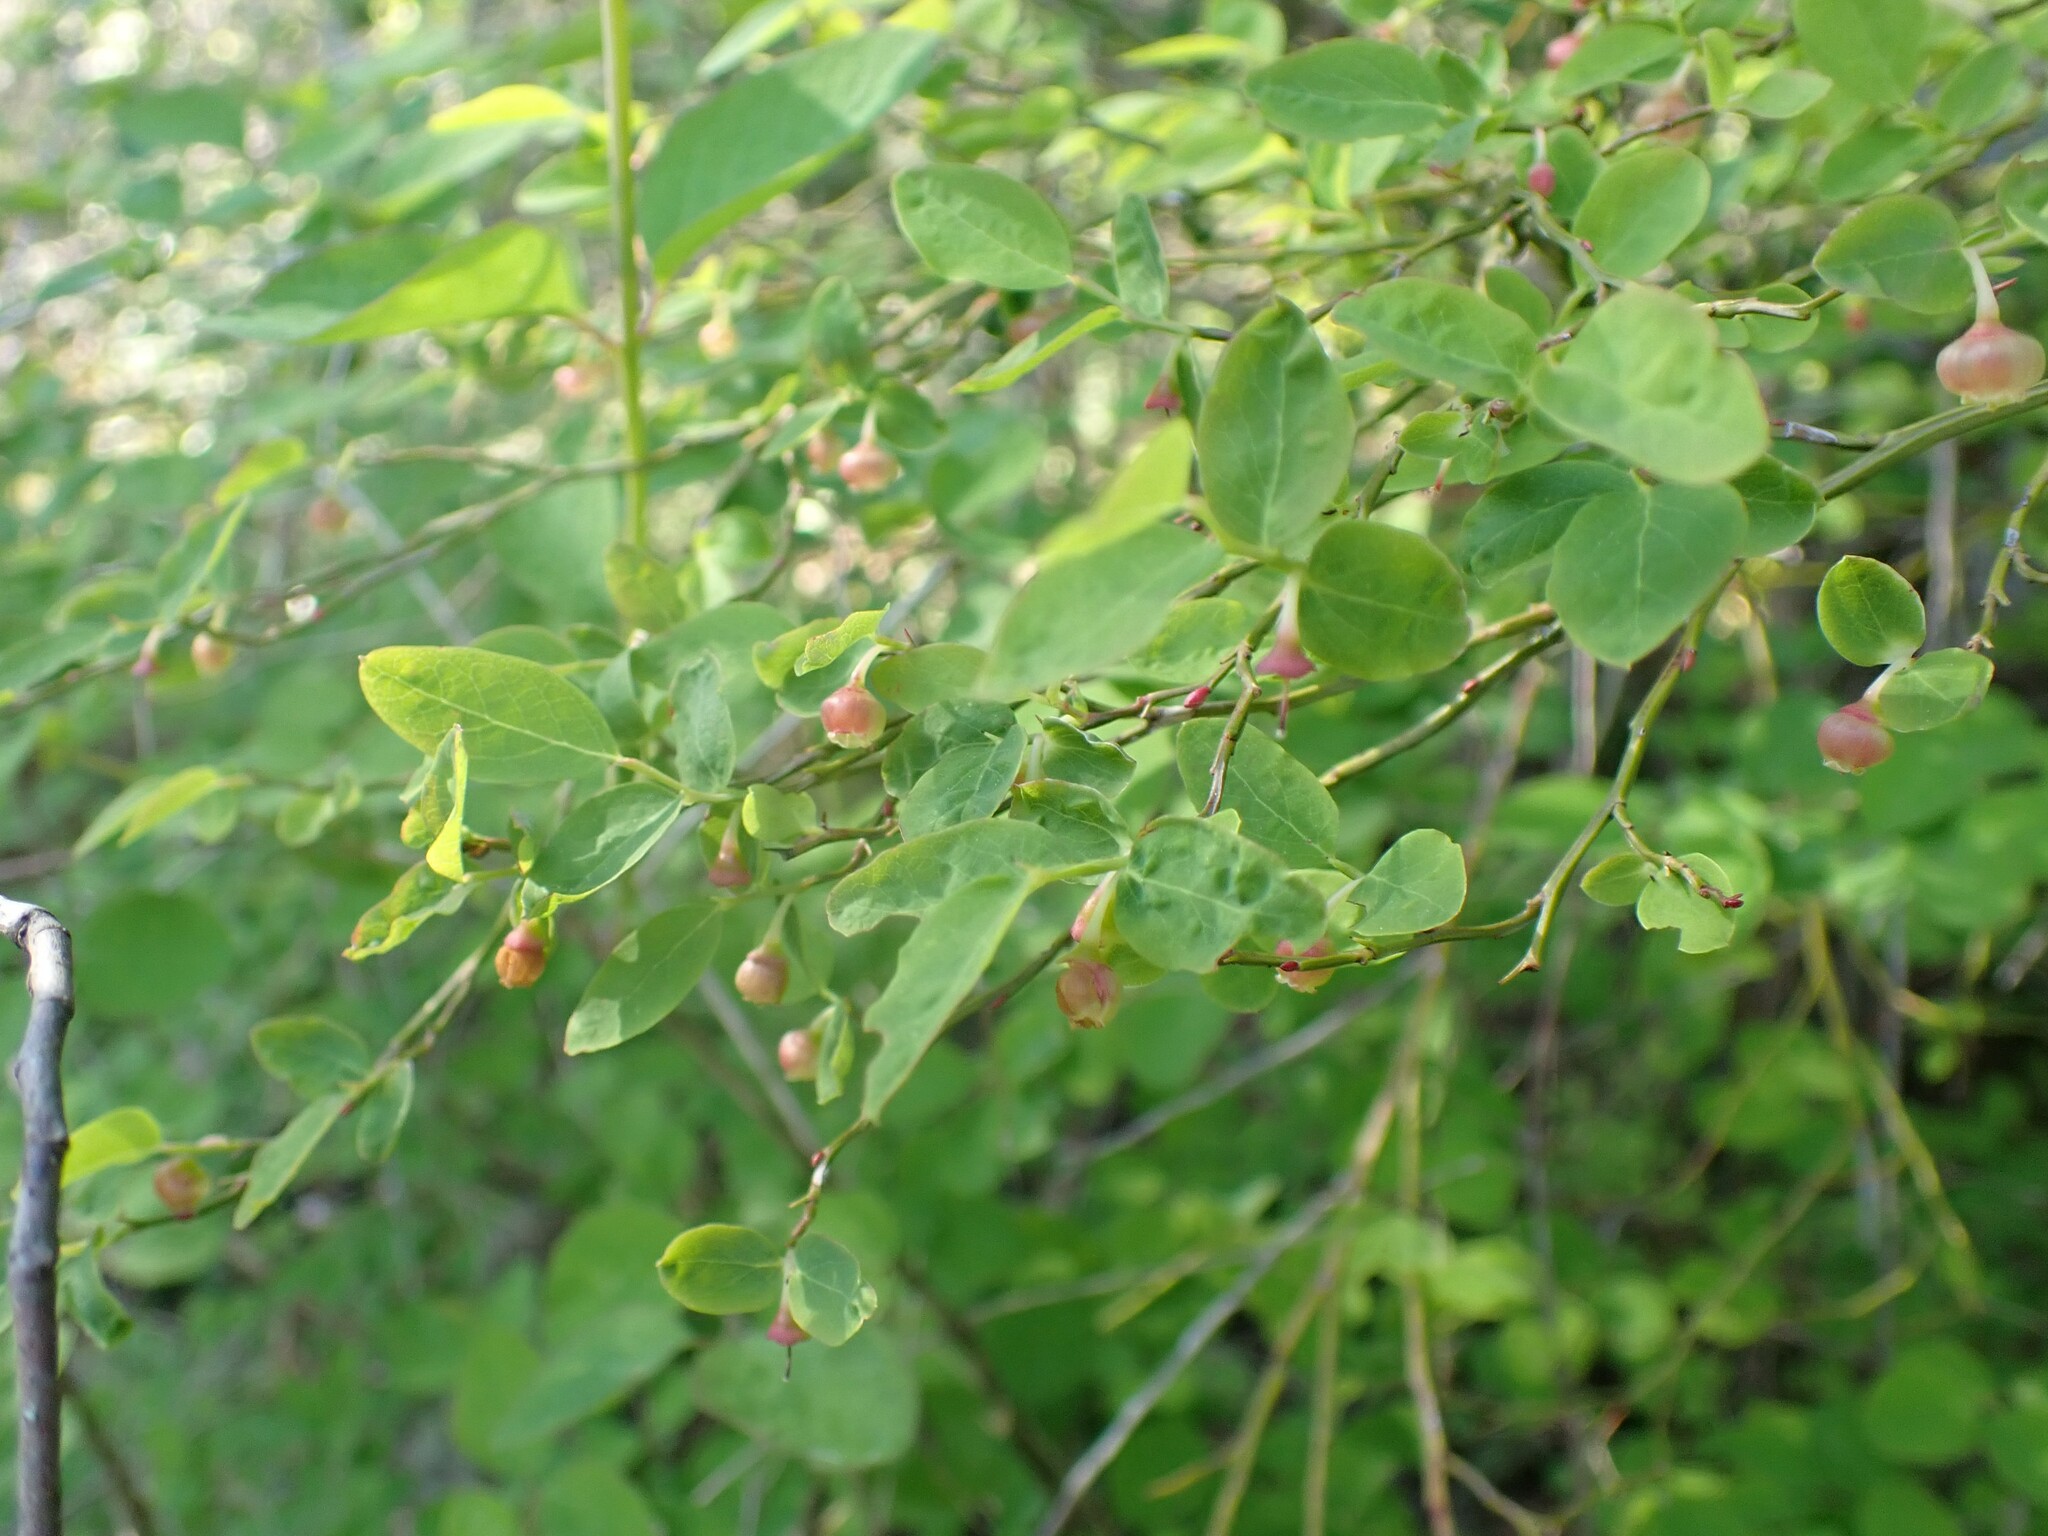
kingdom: Plantae
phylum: Tracheophyta
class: Magnoliopsida
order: Ericales
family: Ericaceae
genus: Vaccinium
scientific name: Vaccinium parvifolium
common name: Red-huckleberry
